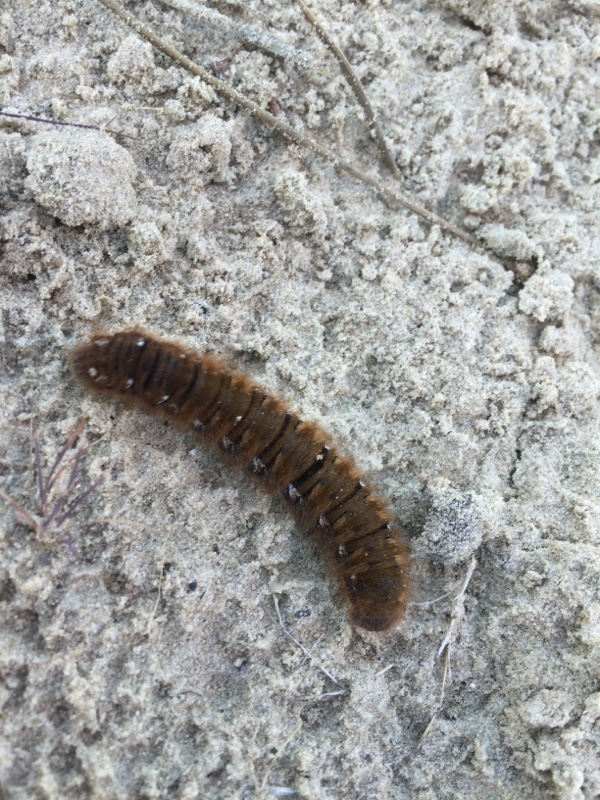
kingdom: Animalia
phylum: Arthropoda
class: Insecta
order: Lepidoptera
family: Lasiocampidae
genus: Lasiocampa
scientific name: Lasiocampa quercus
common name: Oak eggar
